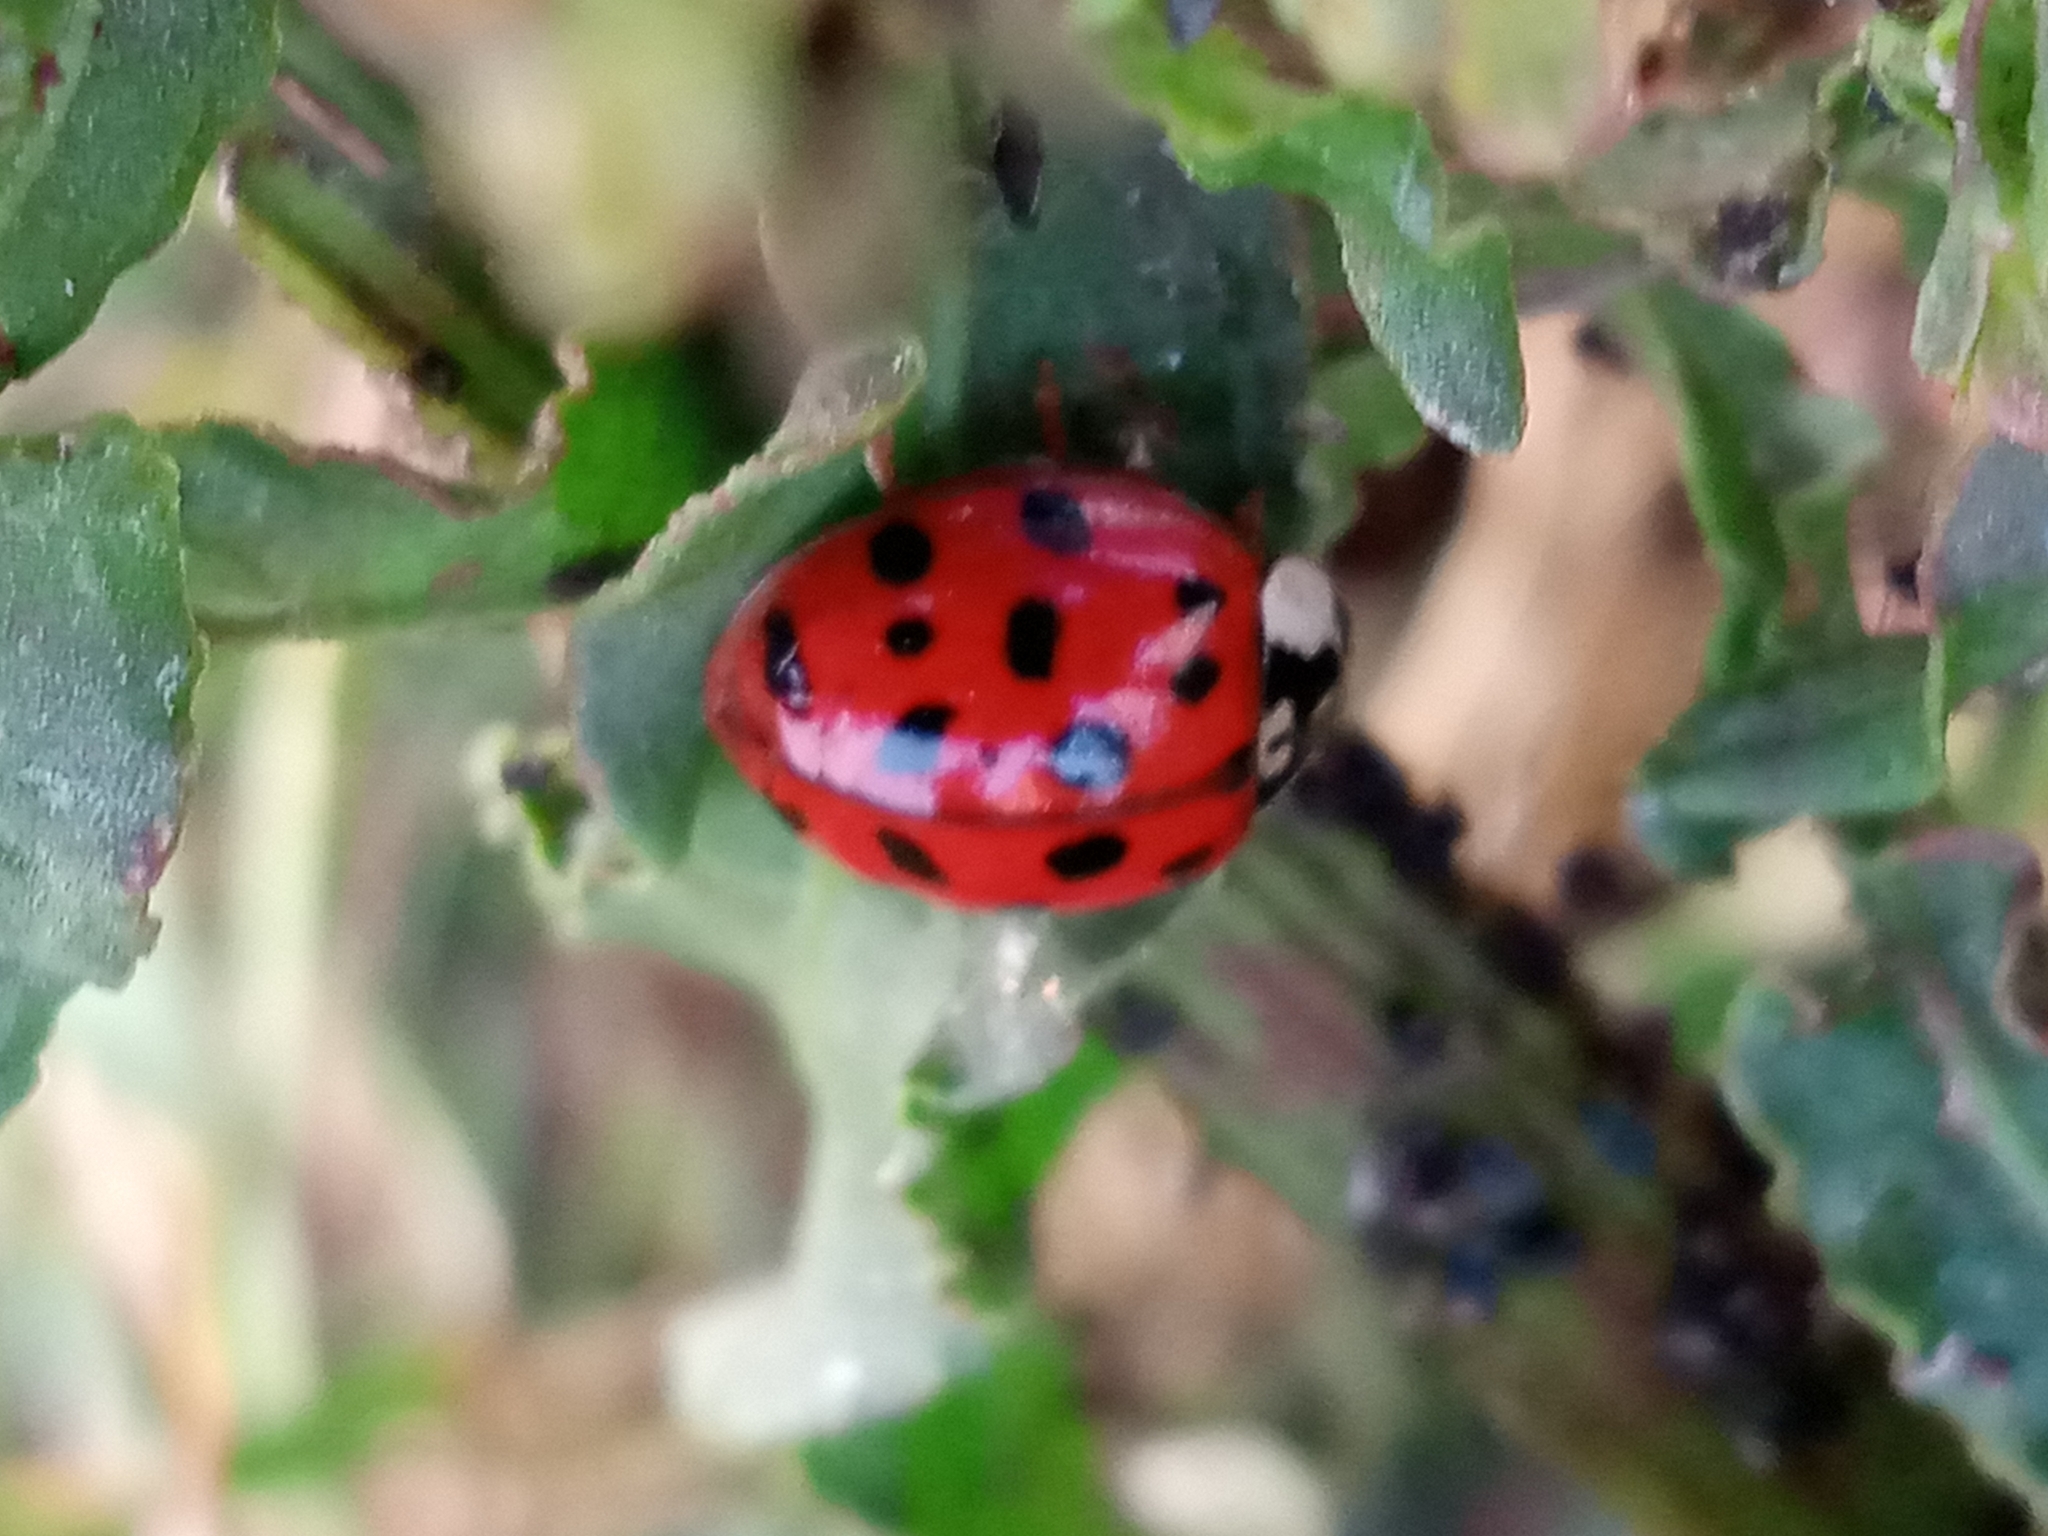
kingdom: Animalia
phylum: Arthropoda
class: Insecta
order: Coleoptera
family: Coccinellidae
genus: Harmonia
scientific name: Harmonia axyridis
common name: Harlequin ladybird
